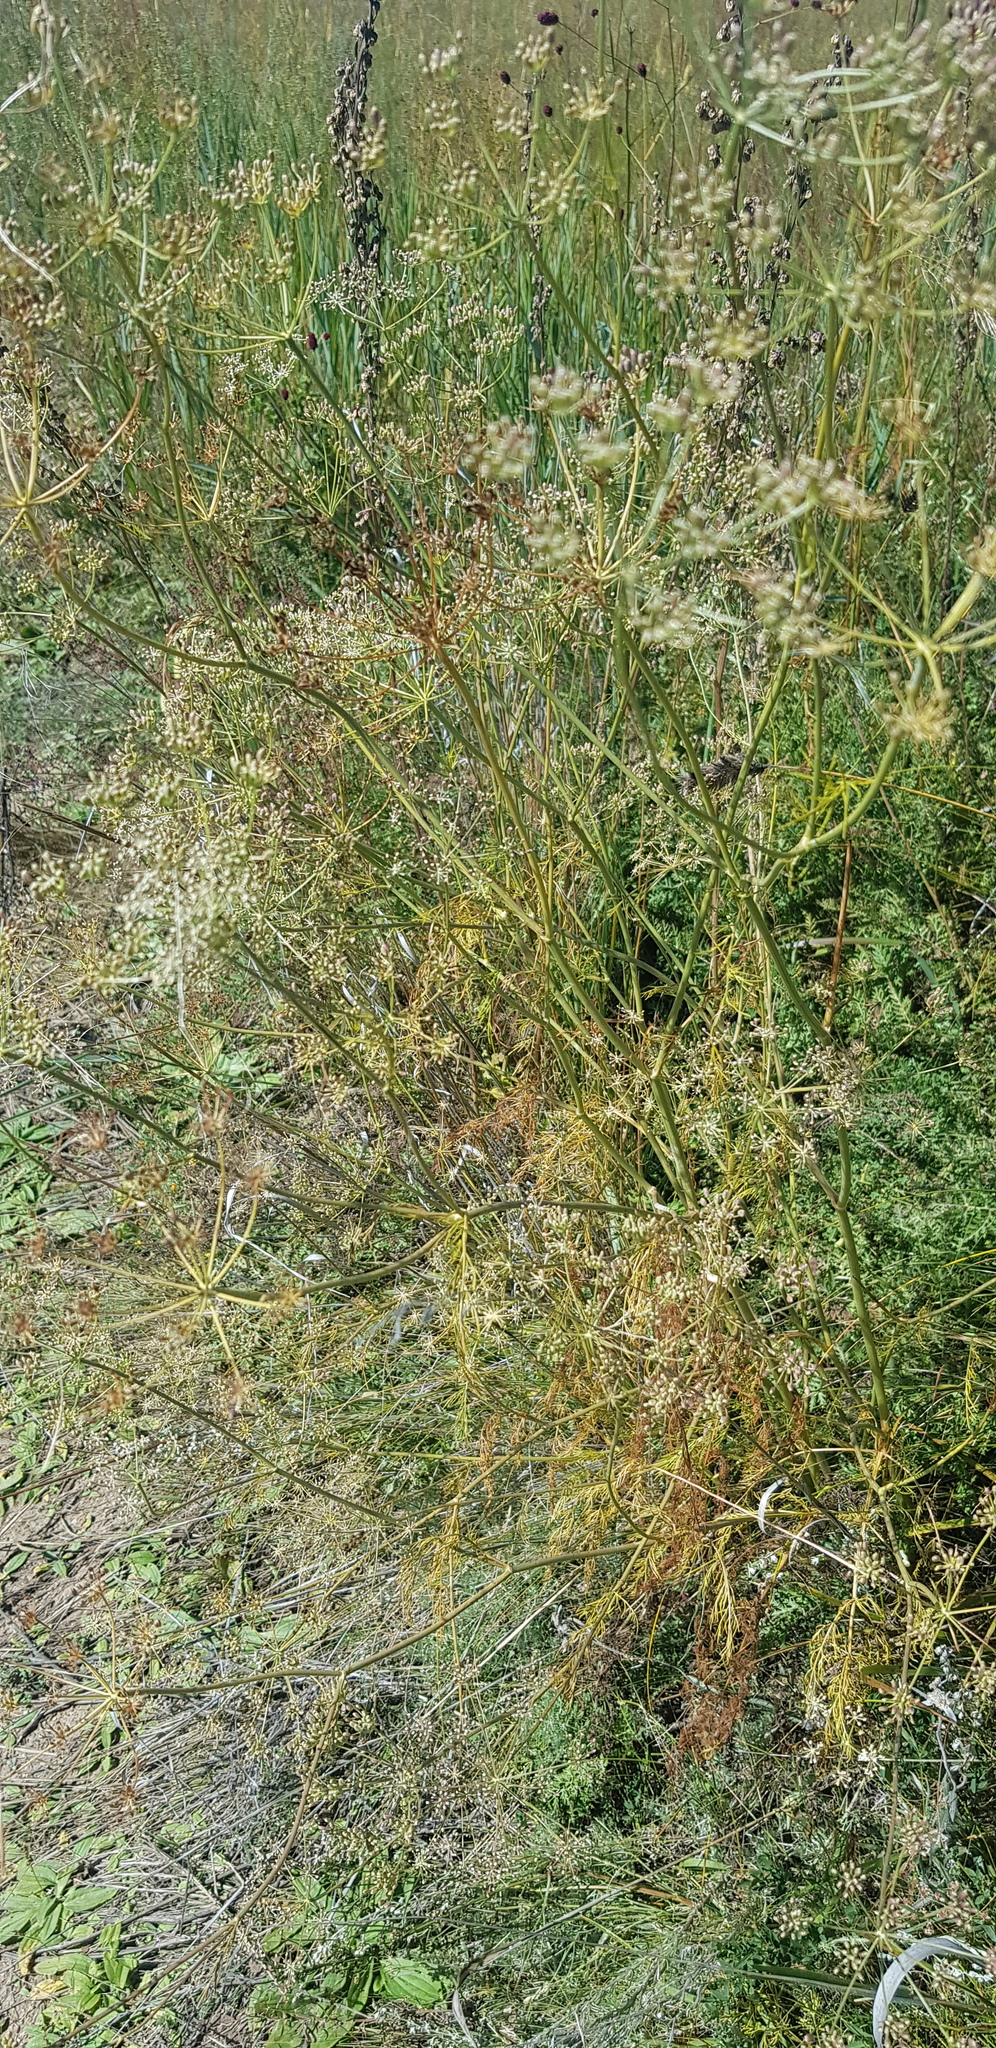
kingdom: Plantae
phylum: Tracheophyta
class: Magnoliopsida
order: Apiales
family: Apiaceae
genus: Sphallerocarpus
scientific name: Sphallerocarpus gracilis
